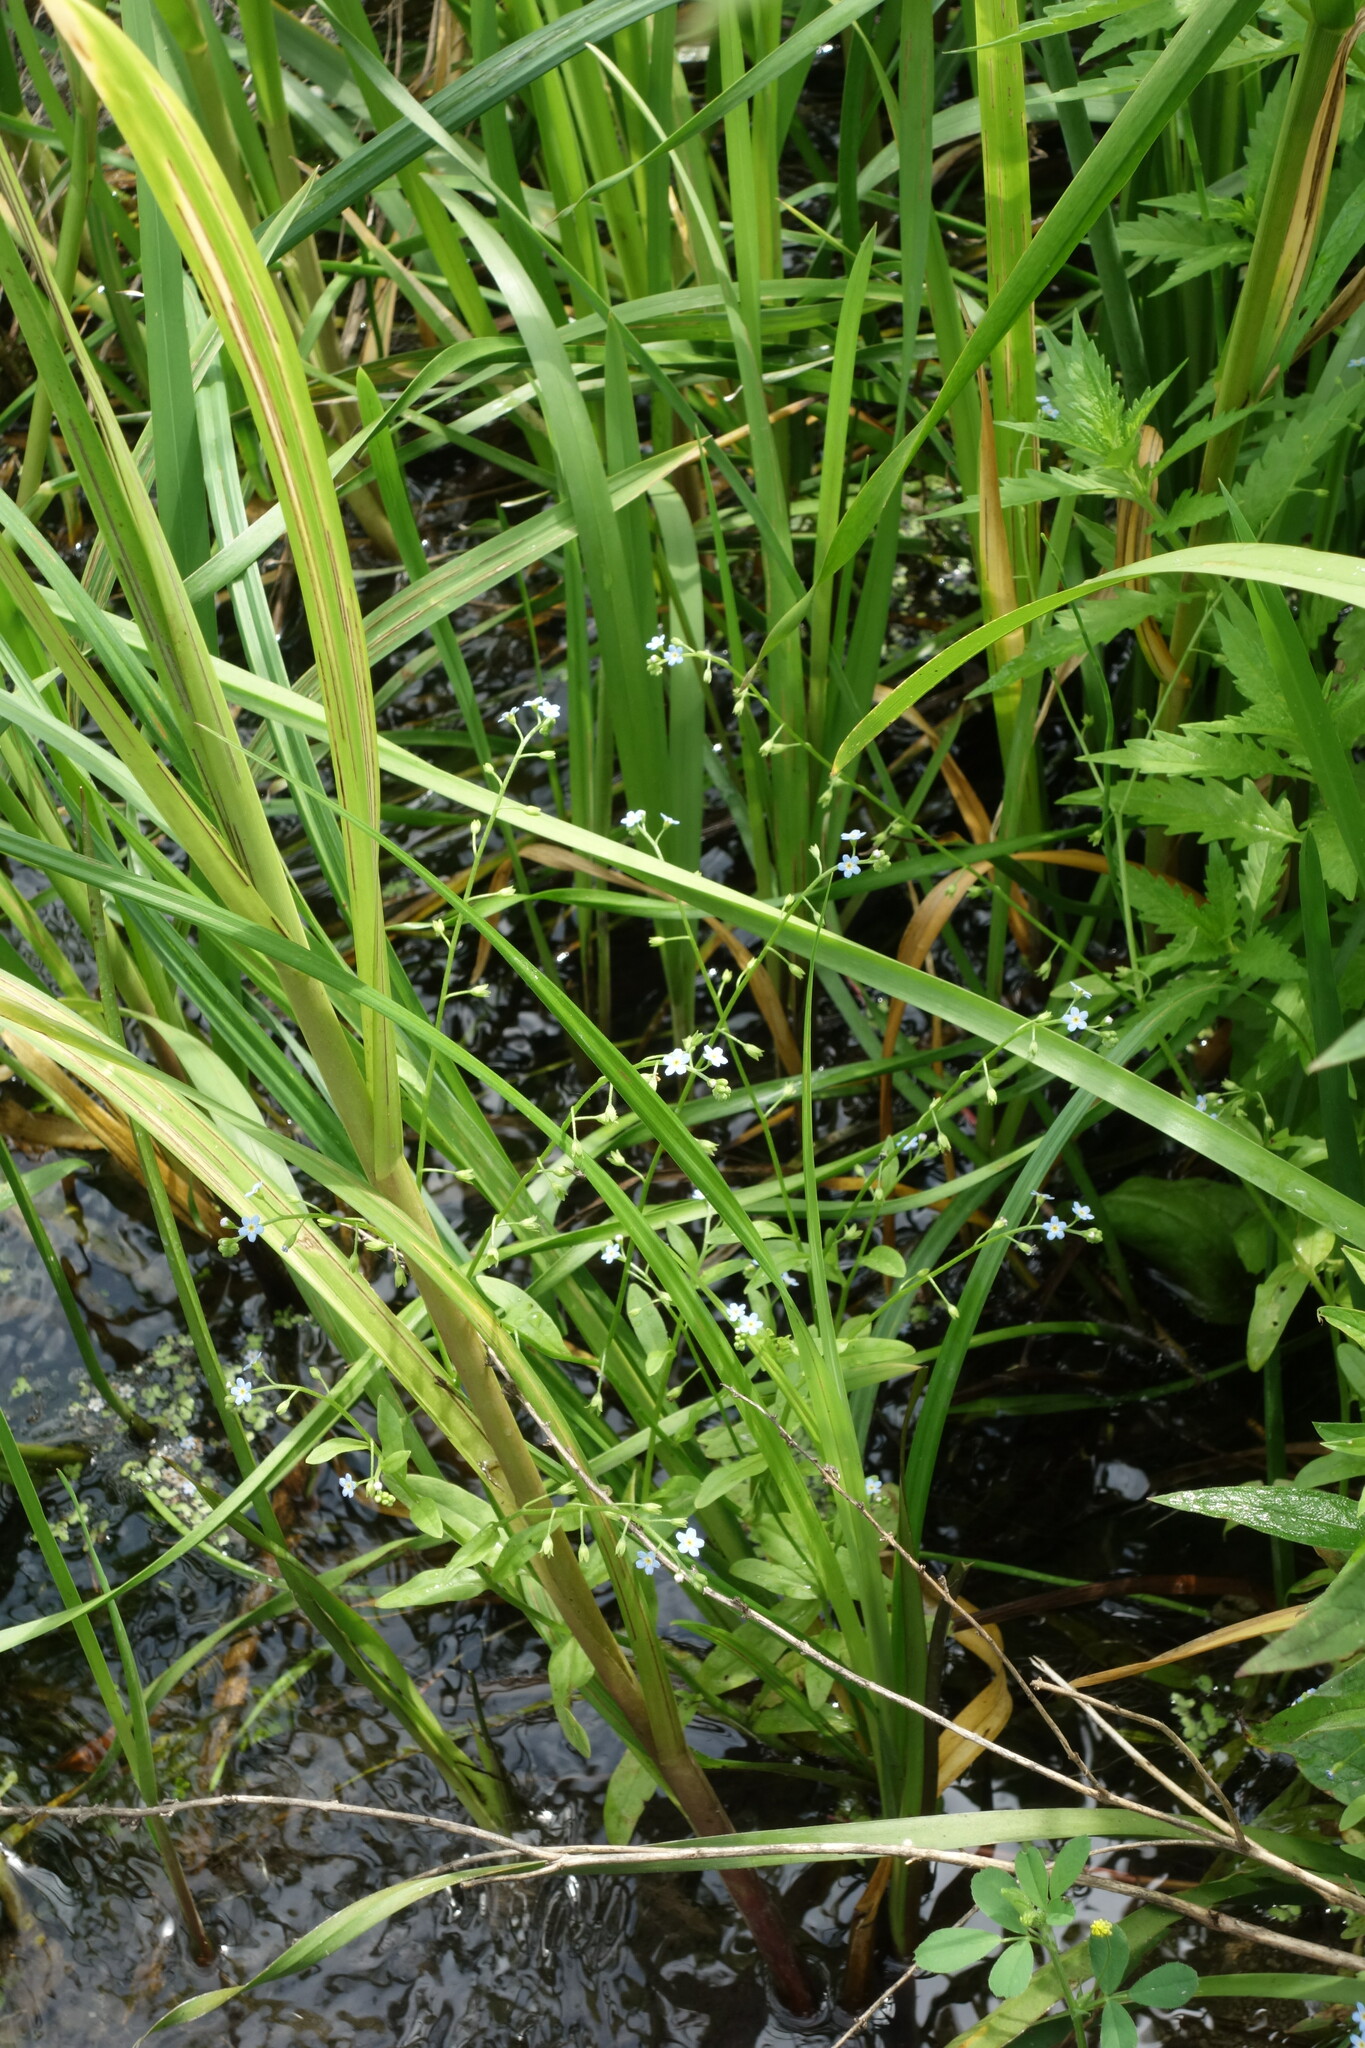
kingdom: Plantae
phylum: Tracheophyta
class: Magnoliopsida
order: Boraginales
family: Boraginaceae
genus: Myosotis
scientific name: Myosotis laxa
